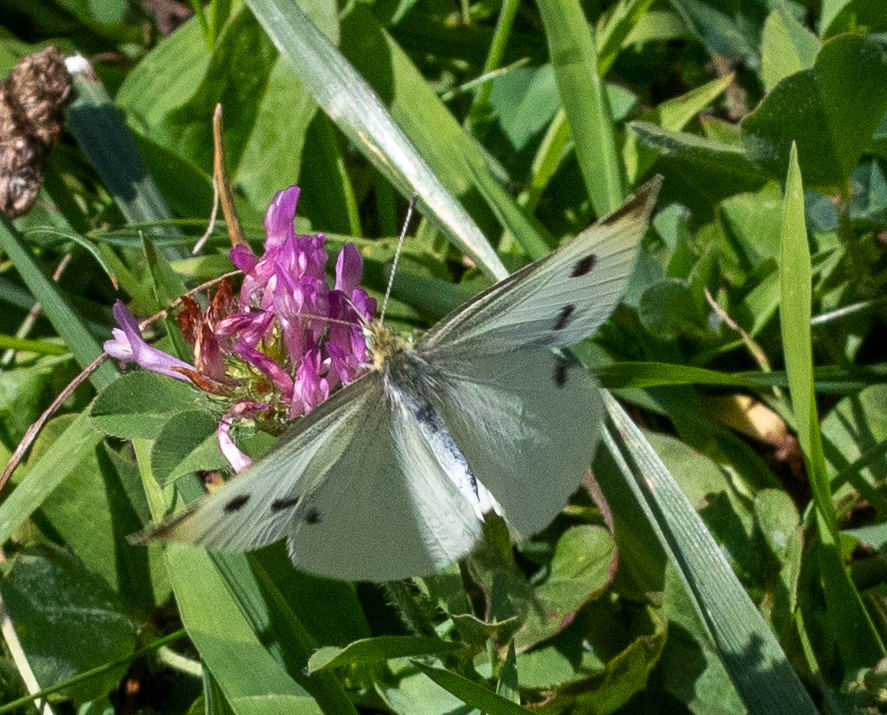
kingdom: Animalia
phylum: Arthropoda
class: Insecta
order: Lepidoptera
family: Pieridae
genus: Pieris
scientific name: Pieris rapae
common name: Small white
